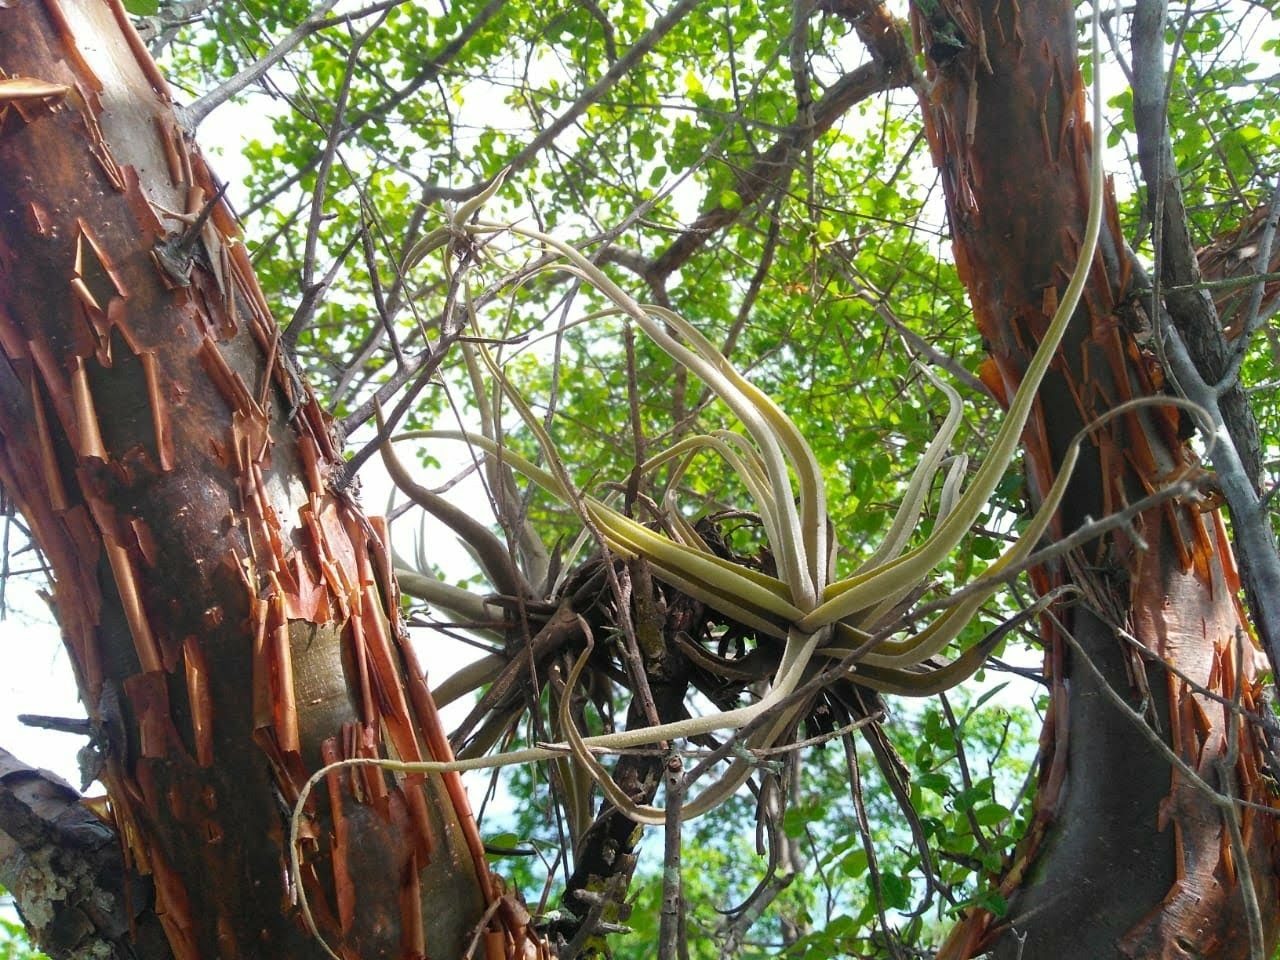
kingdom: Plantae
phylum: Tracheophyta
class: Liliopsida
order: Poales
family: Bromeliaceae
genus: Tillandsia
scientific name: Tillandsia streptocarpa
